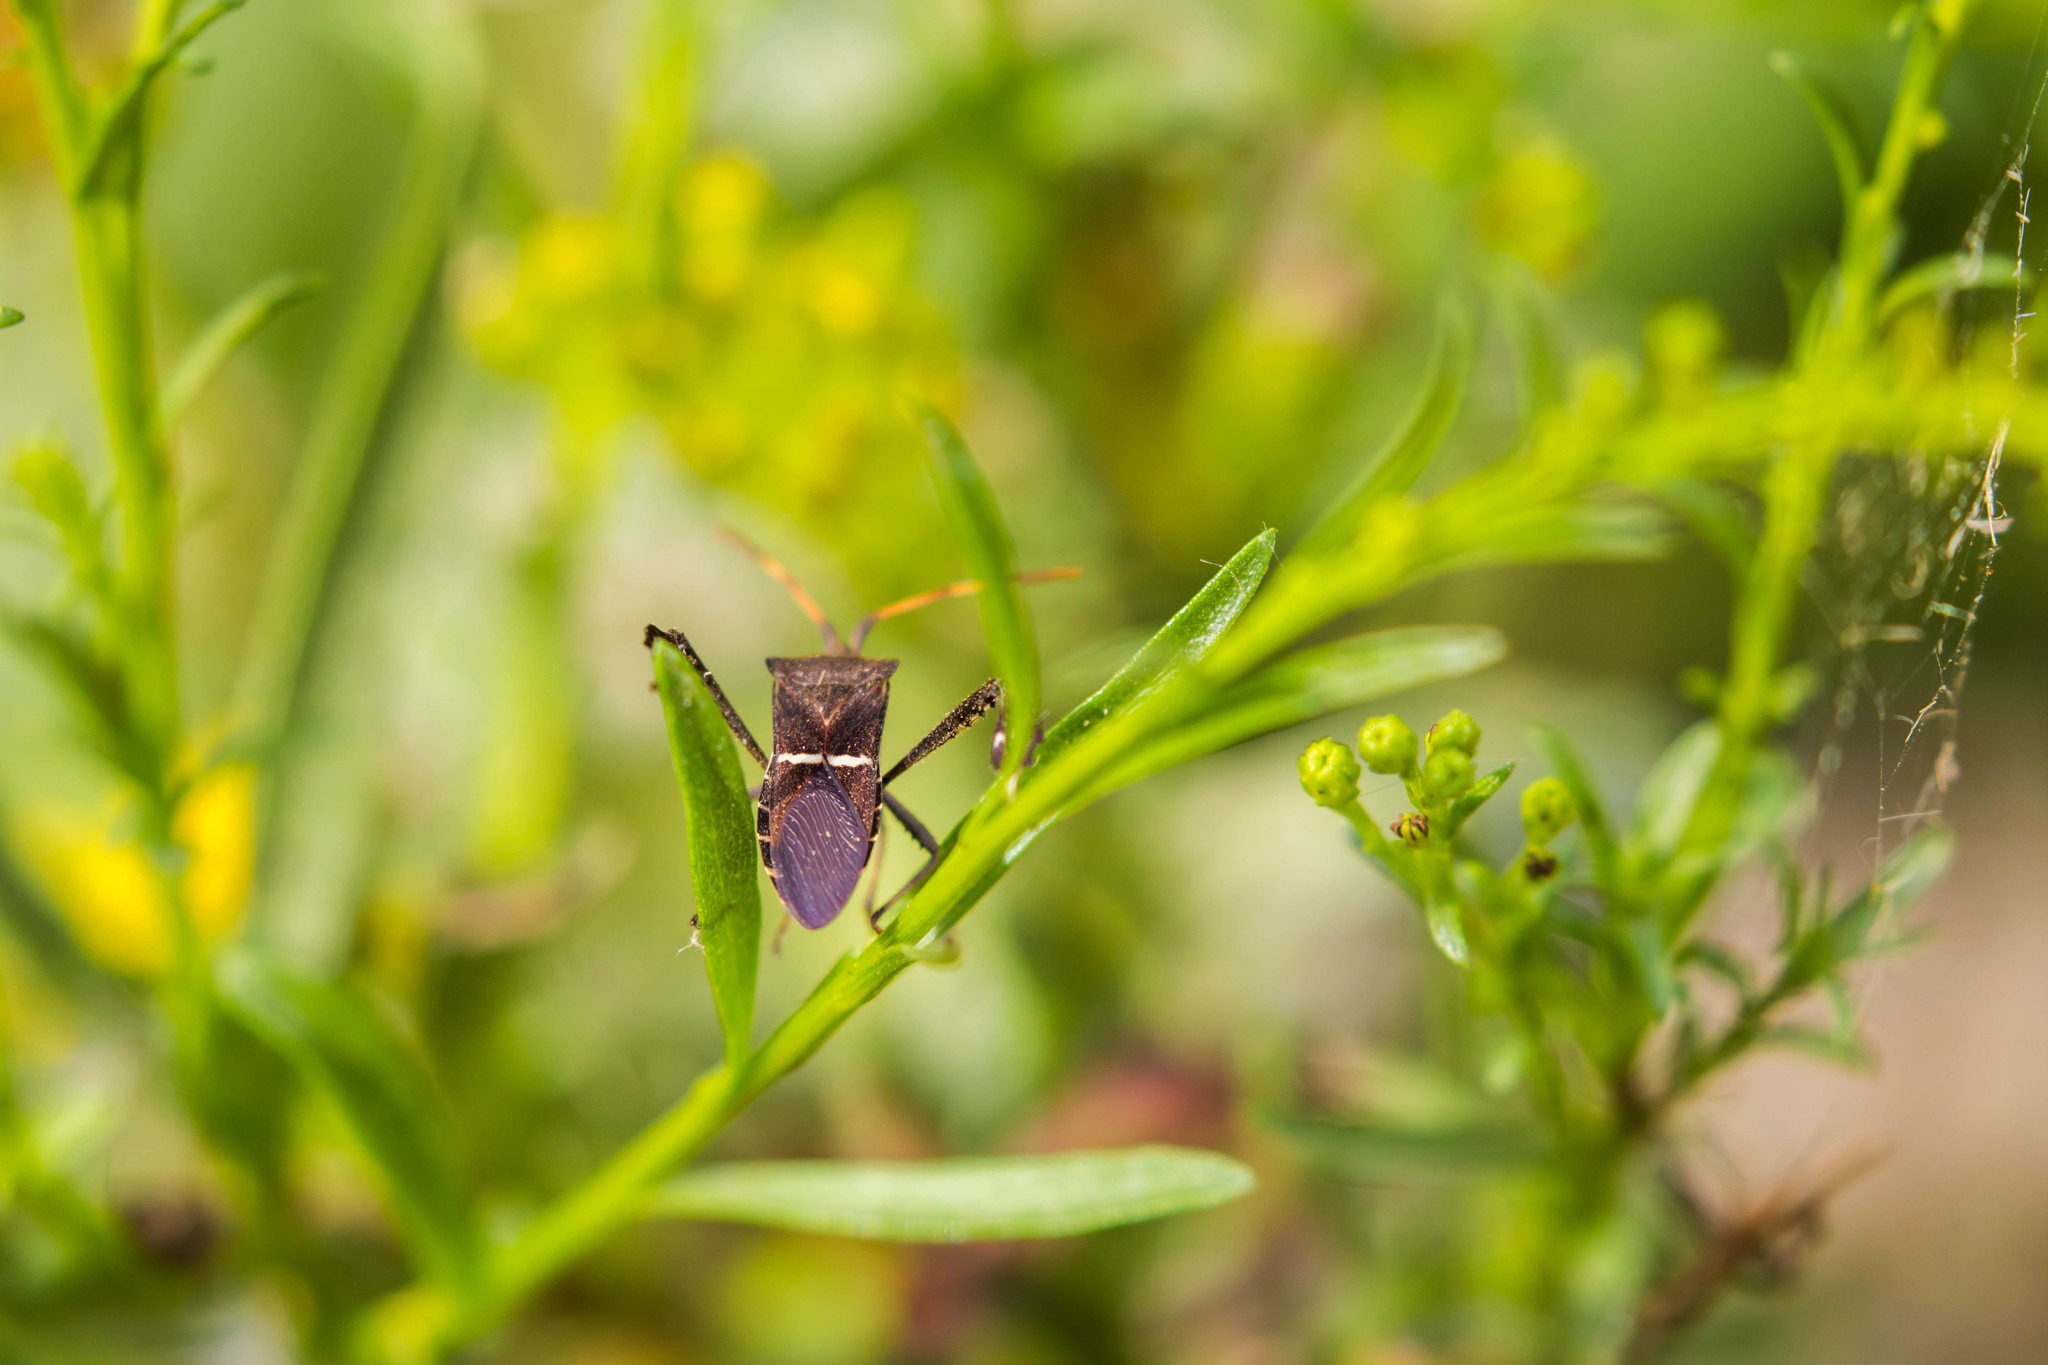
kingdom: Animalia
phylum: Arthropoda
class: Insecta
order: Hemiptera
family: Coreidae
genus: Leptoglossus
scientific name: Leptoglossus phyllopus
